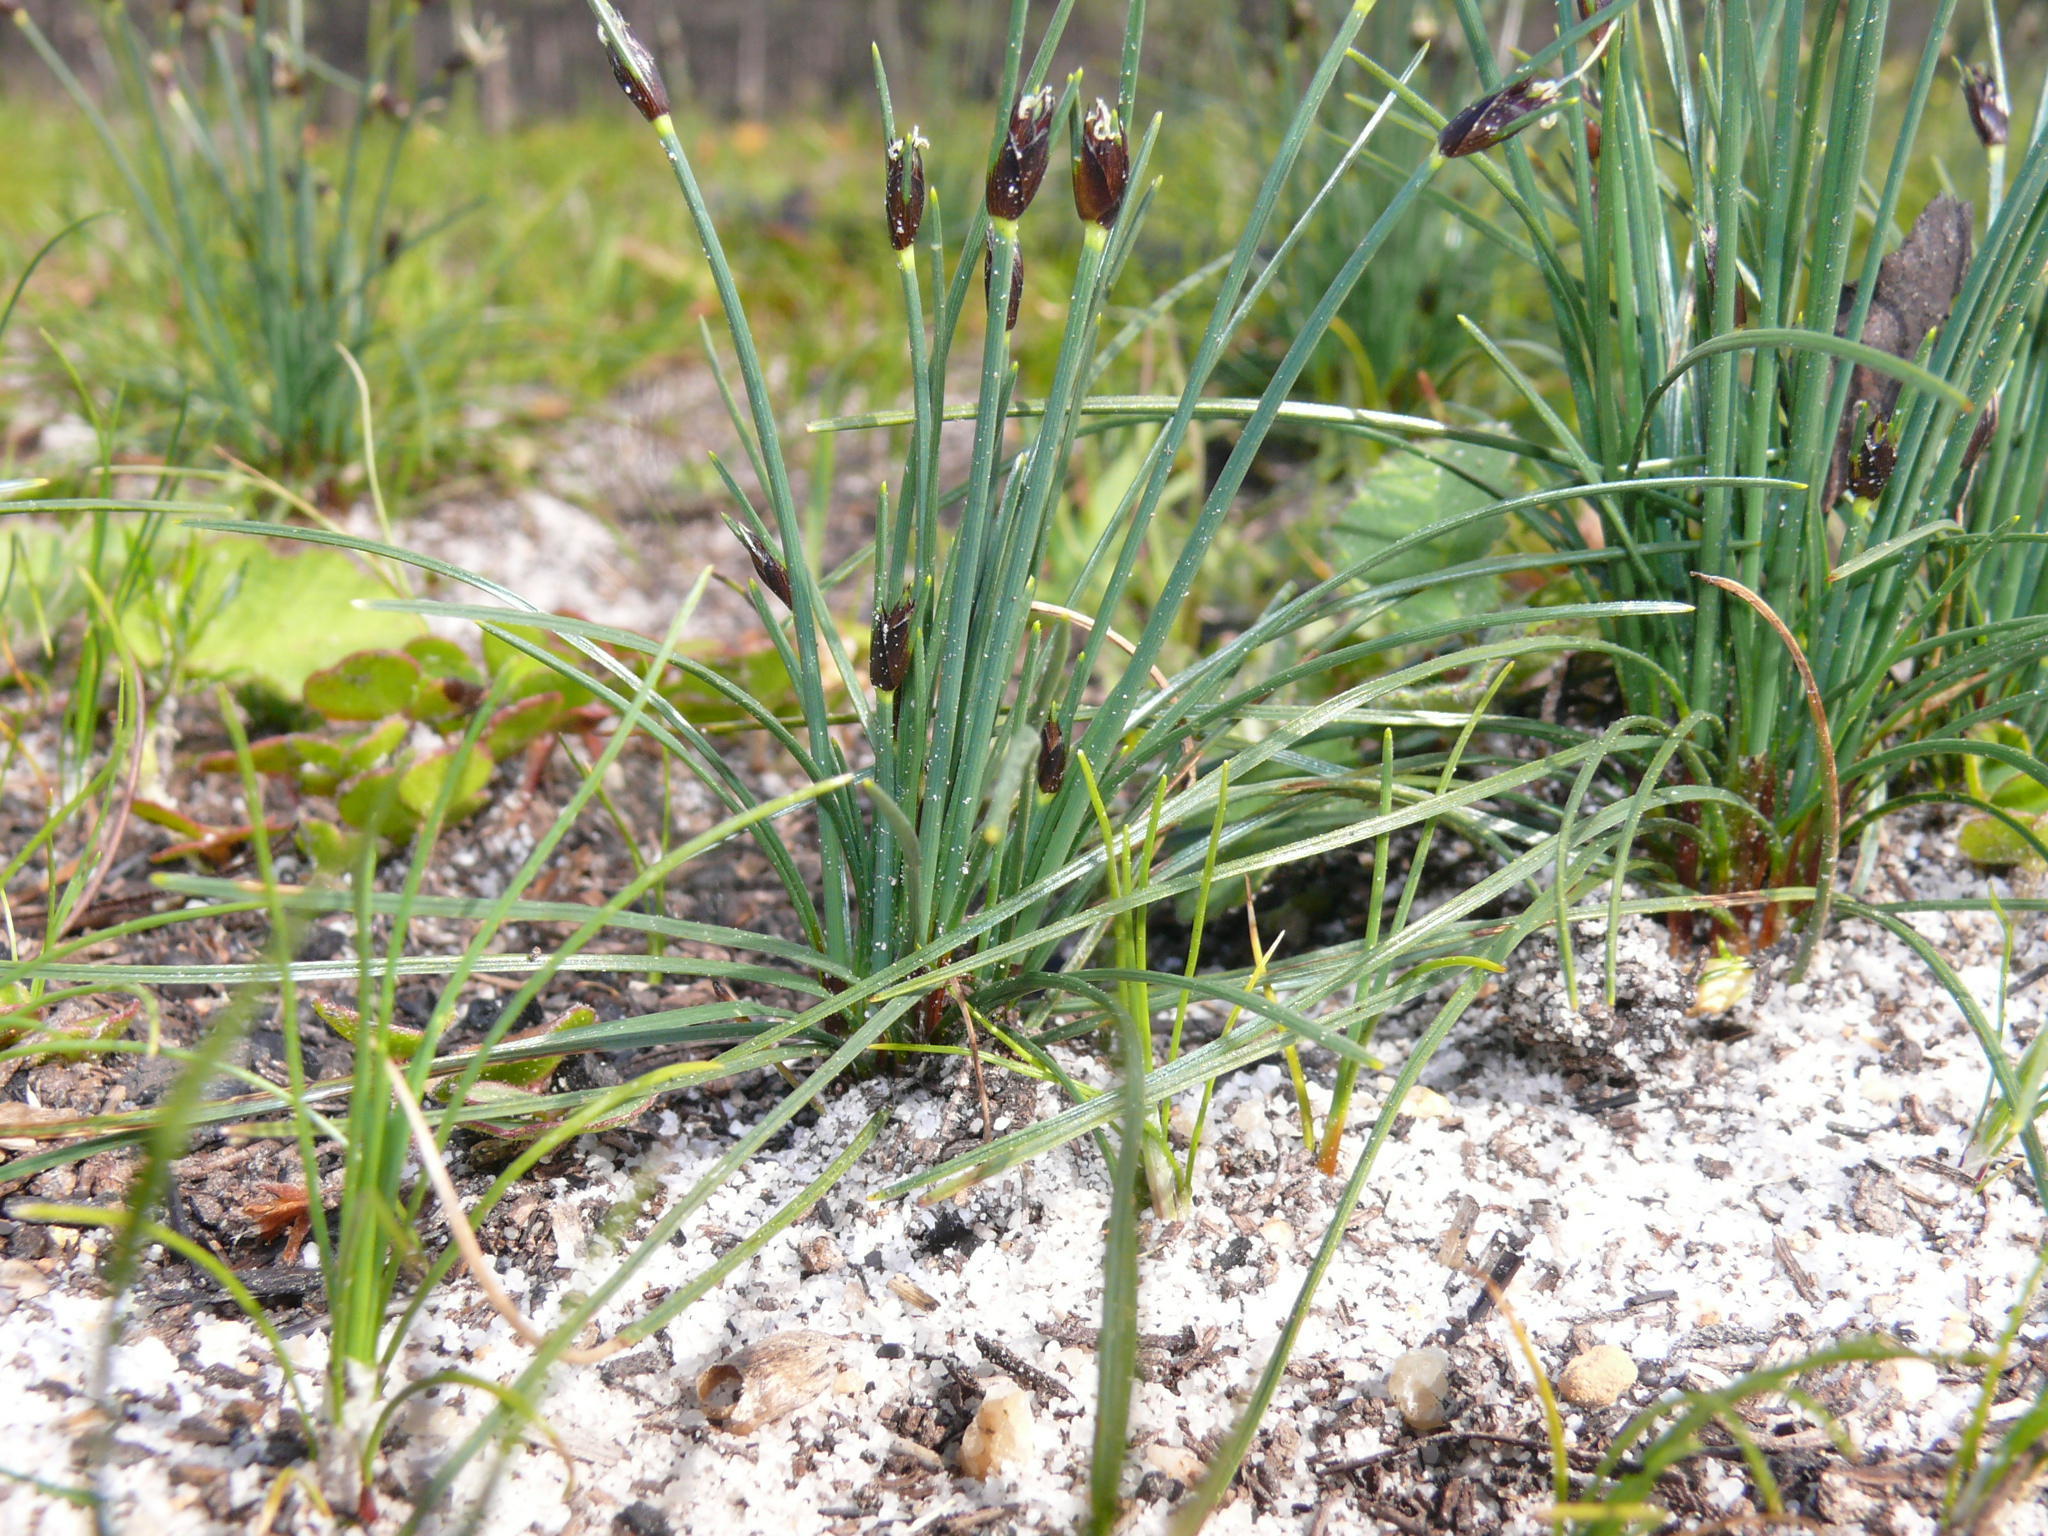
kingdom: Plantae
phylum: Tracheophyta
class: Liliopsida
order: Poales
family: Cyperaceae
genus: Ficinia
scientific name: Ficinia indica
